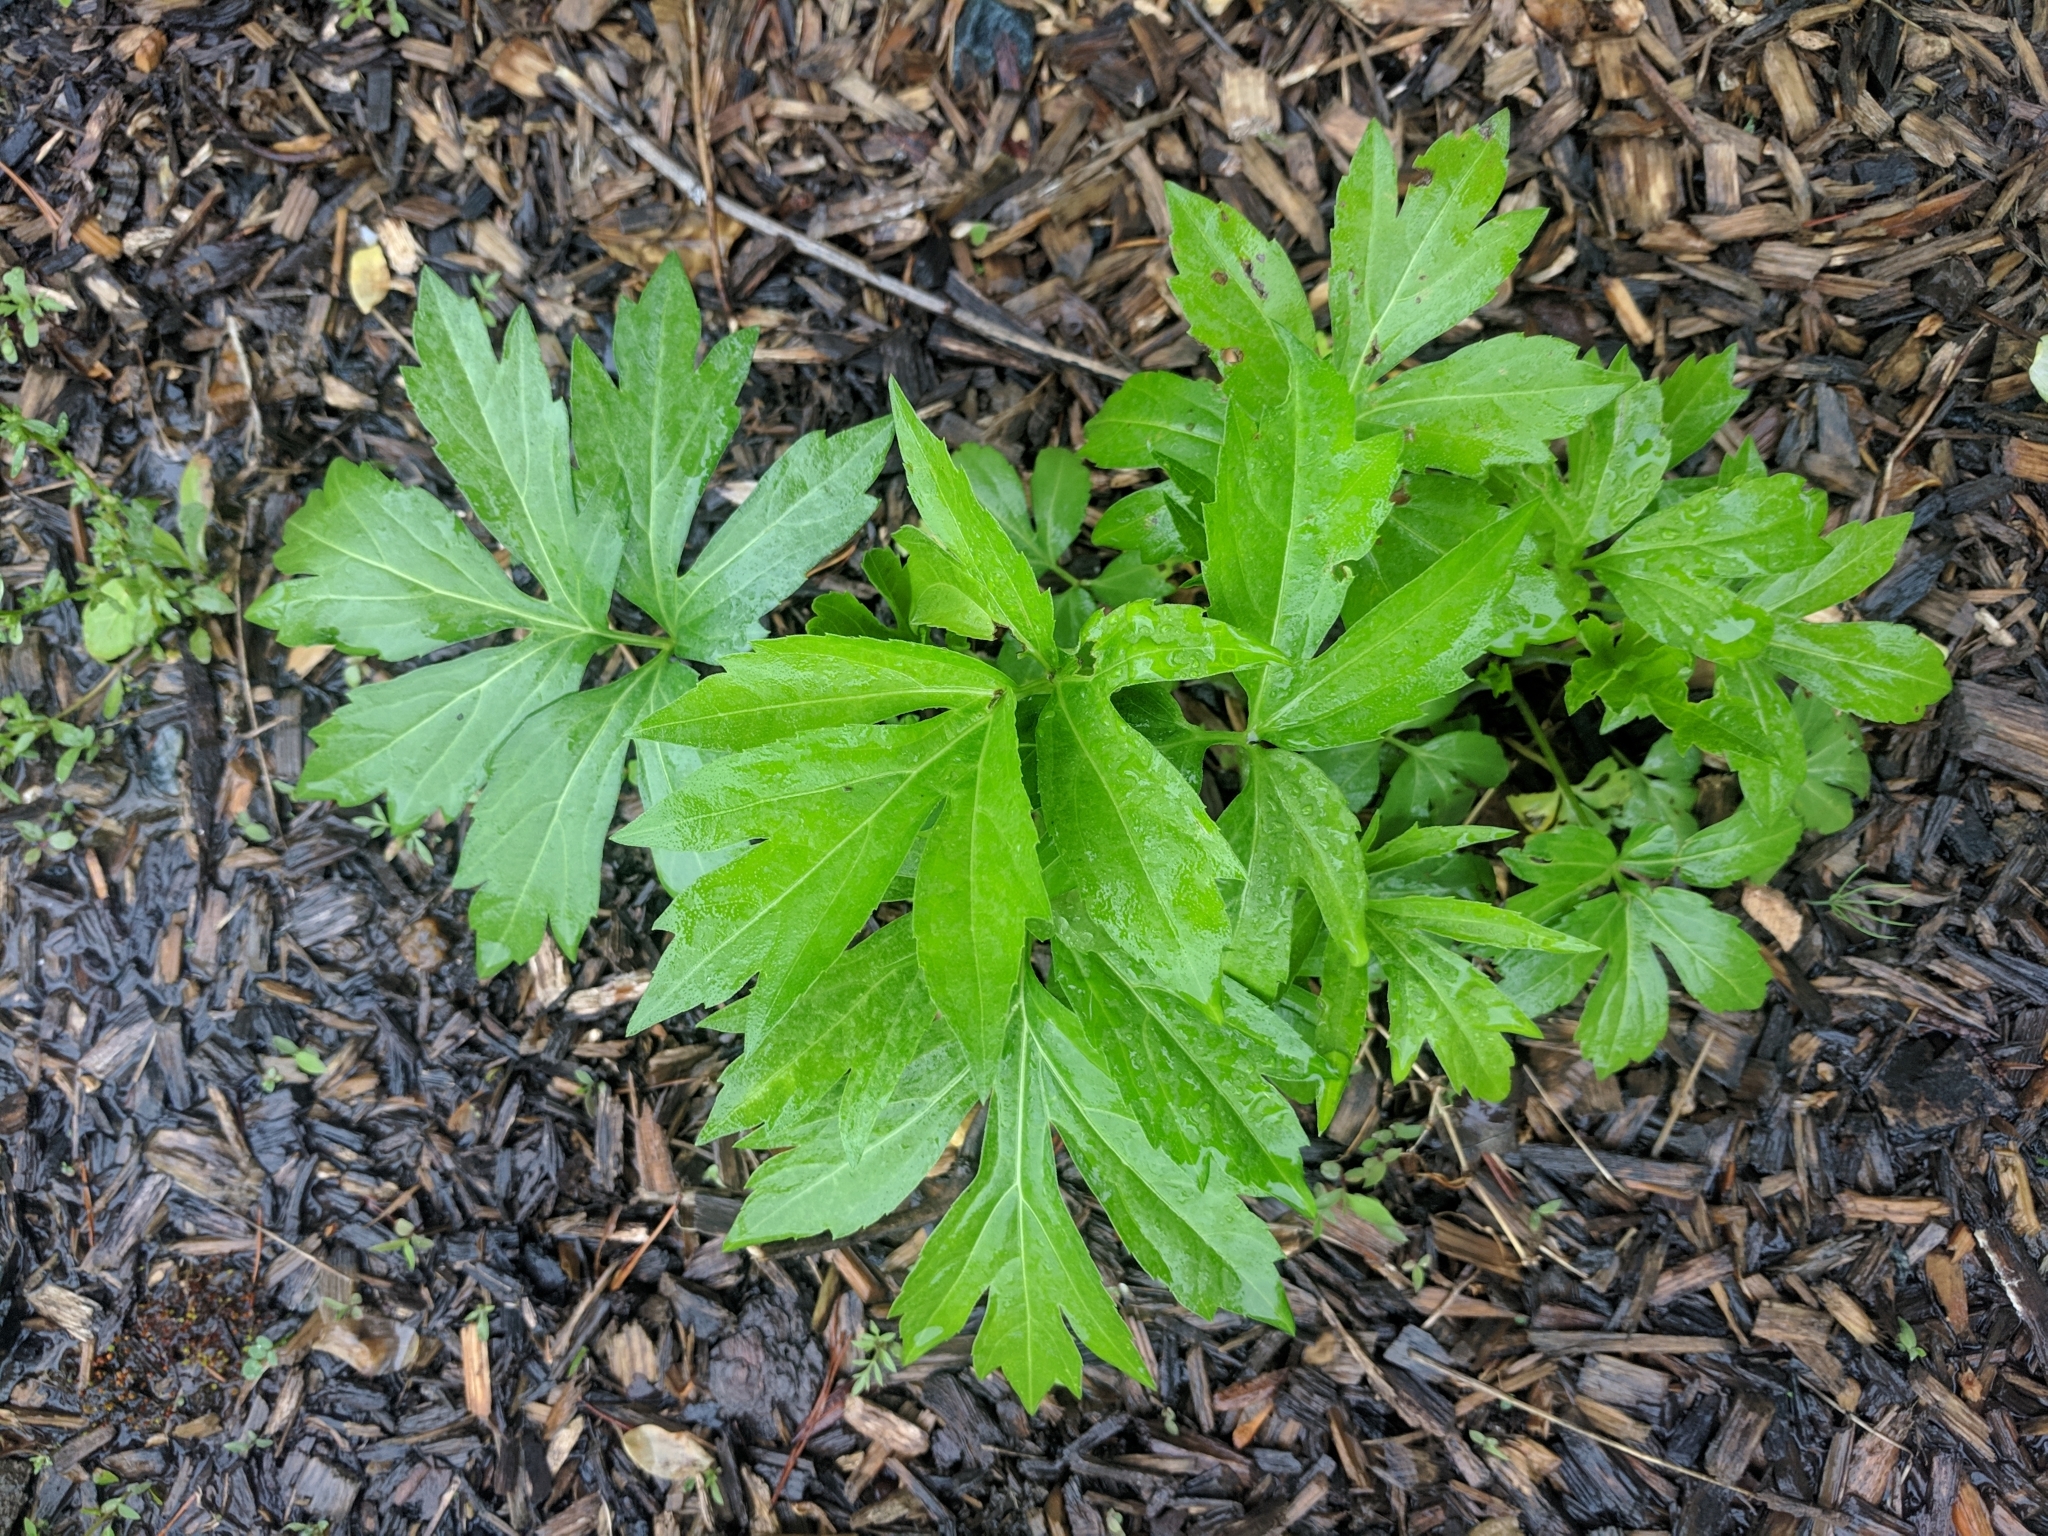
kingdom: Plantae
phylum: Tracheophyta
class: Magnoliopsida
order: Asterales
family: Asteraceae
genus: Rudbeckia
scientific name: Rudbeckia laciniata
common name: Coneflower
